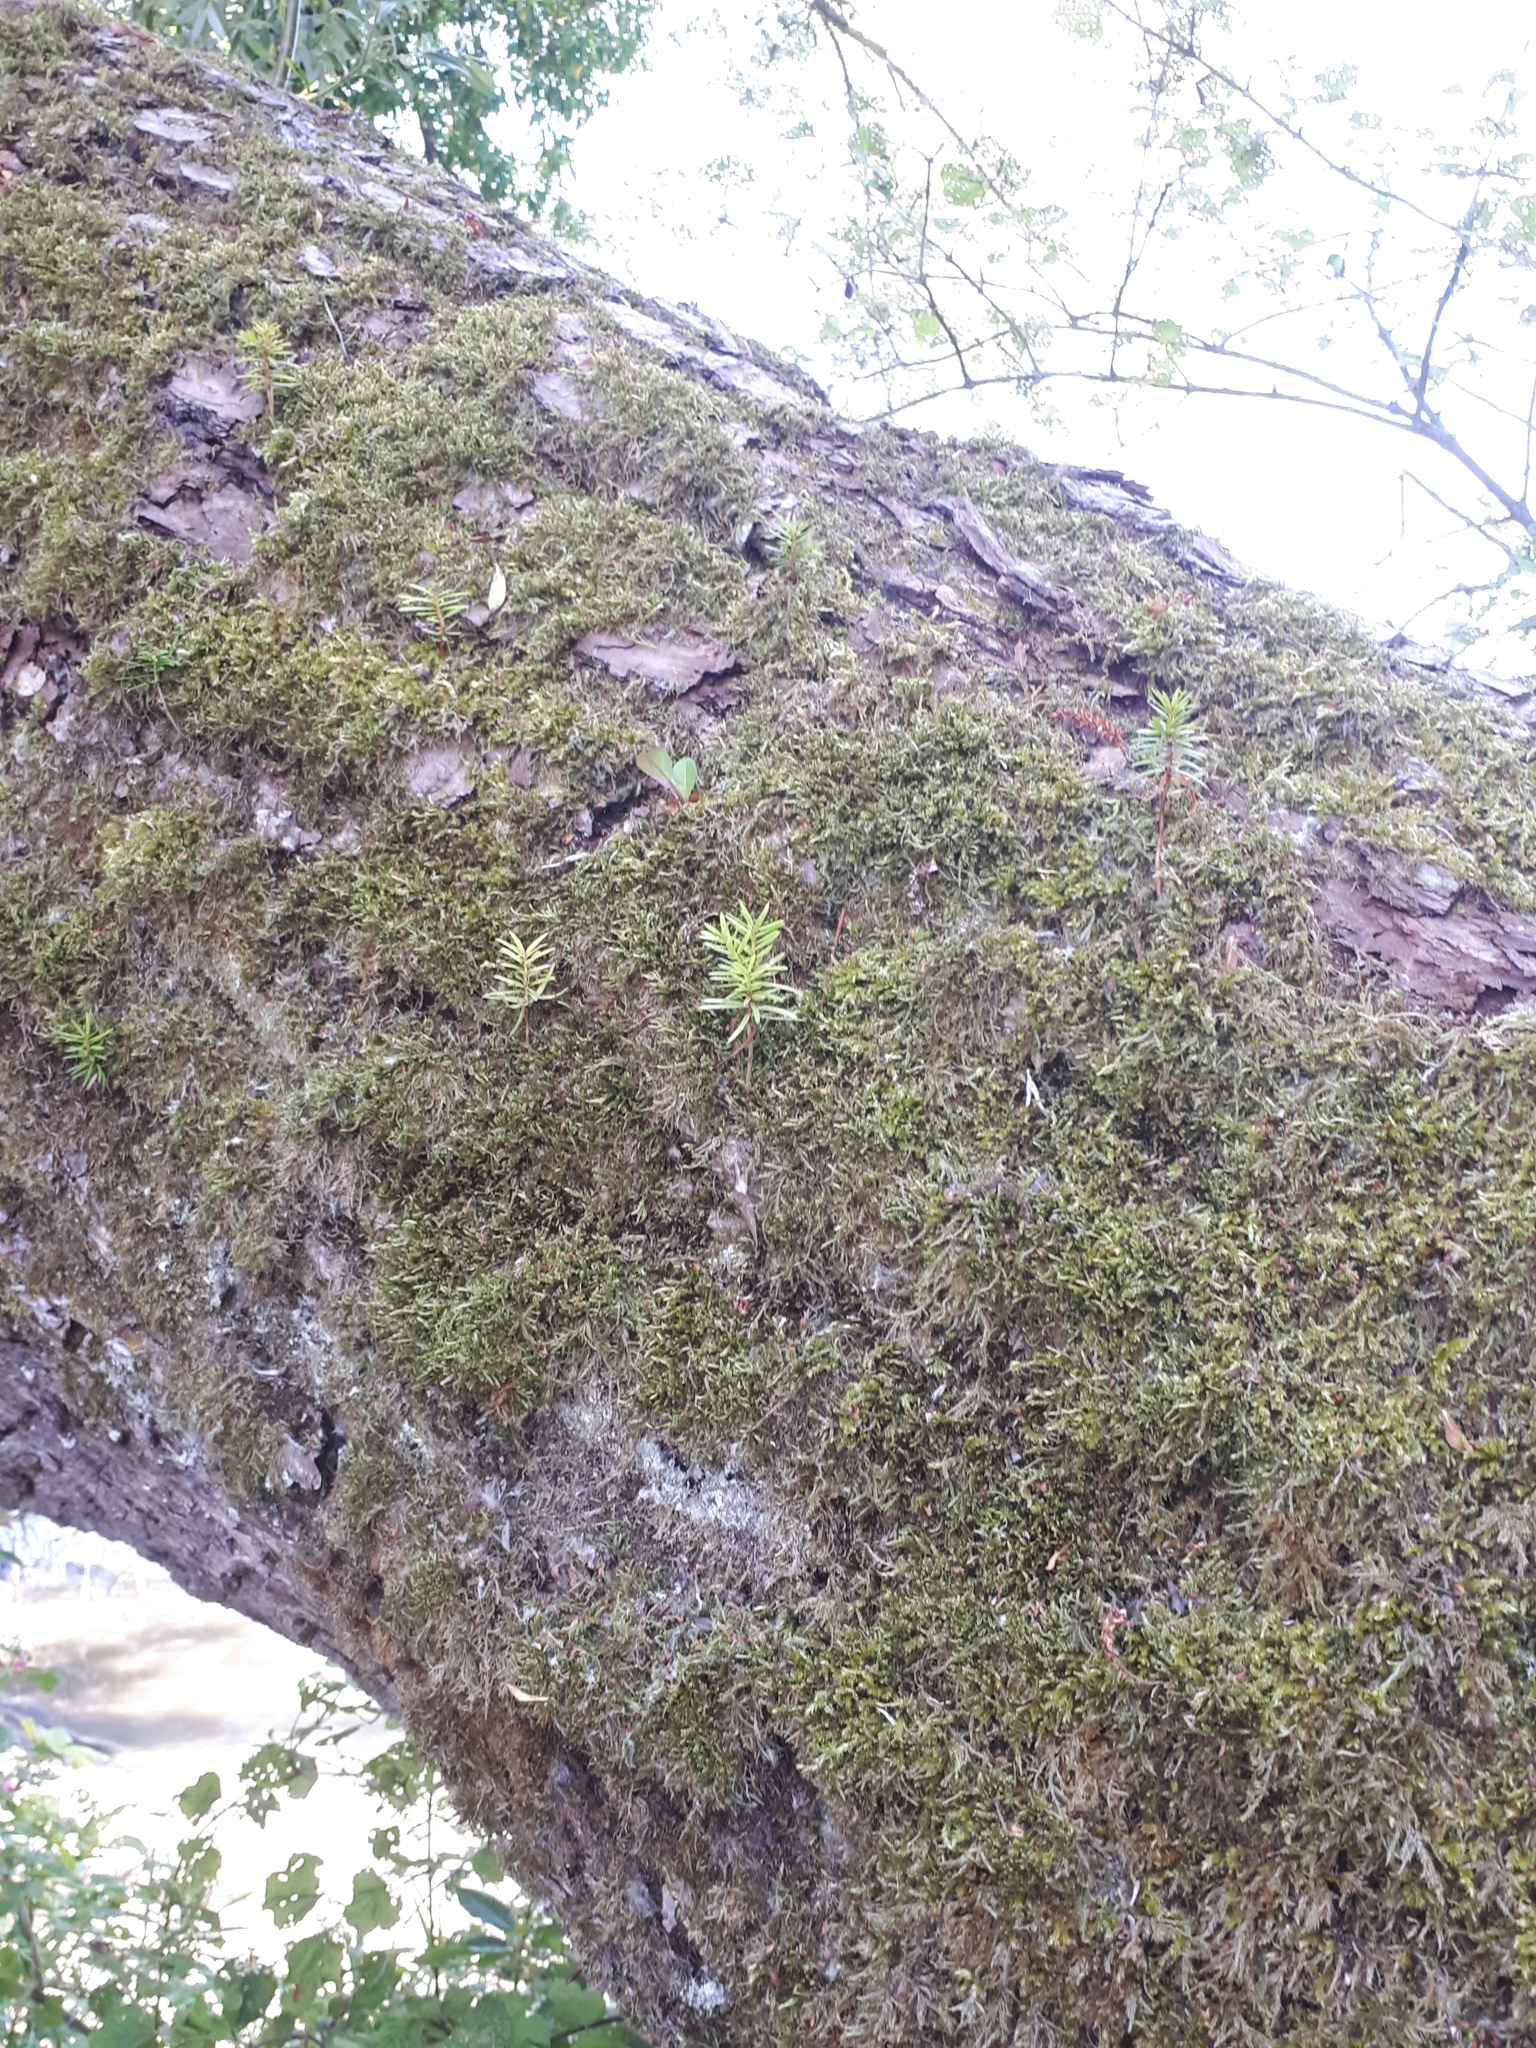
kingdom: Plantae
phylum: Tracheophyta
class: Pinopsida
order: Pinales
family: Taxaceae
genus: Taxus
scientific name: Taxus baccata
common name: Yew
